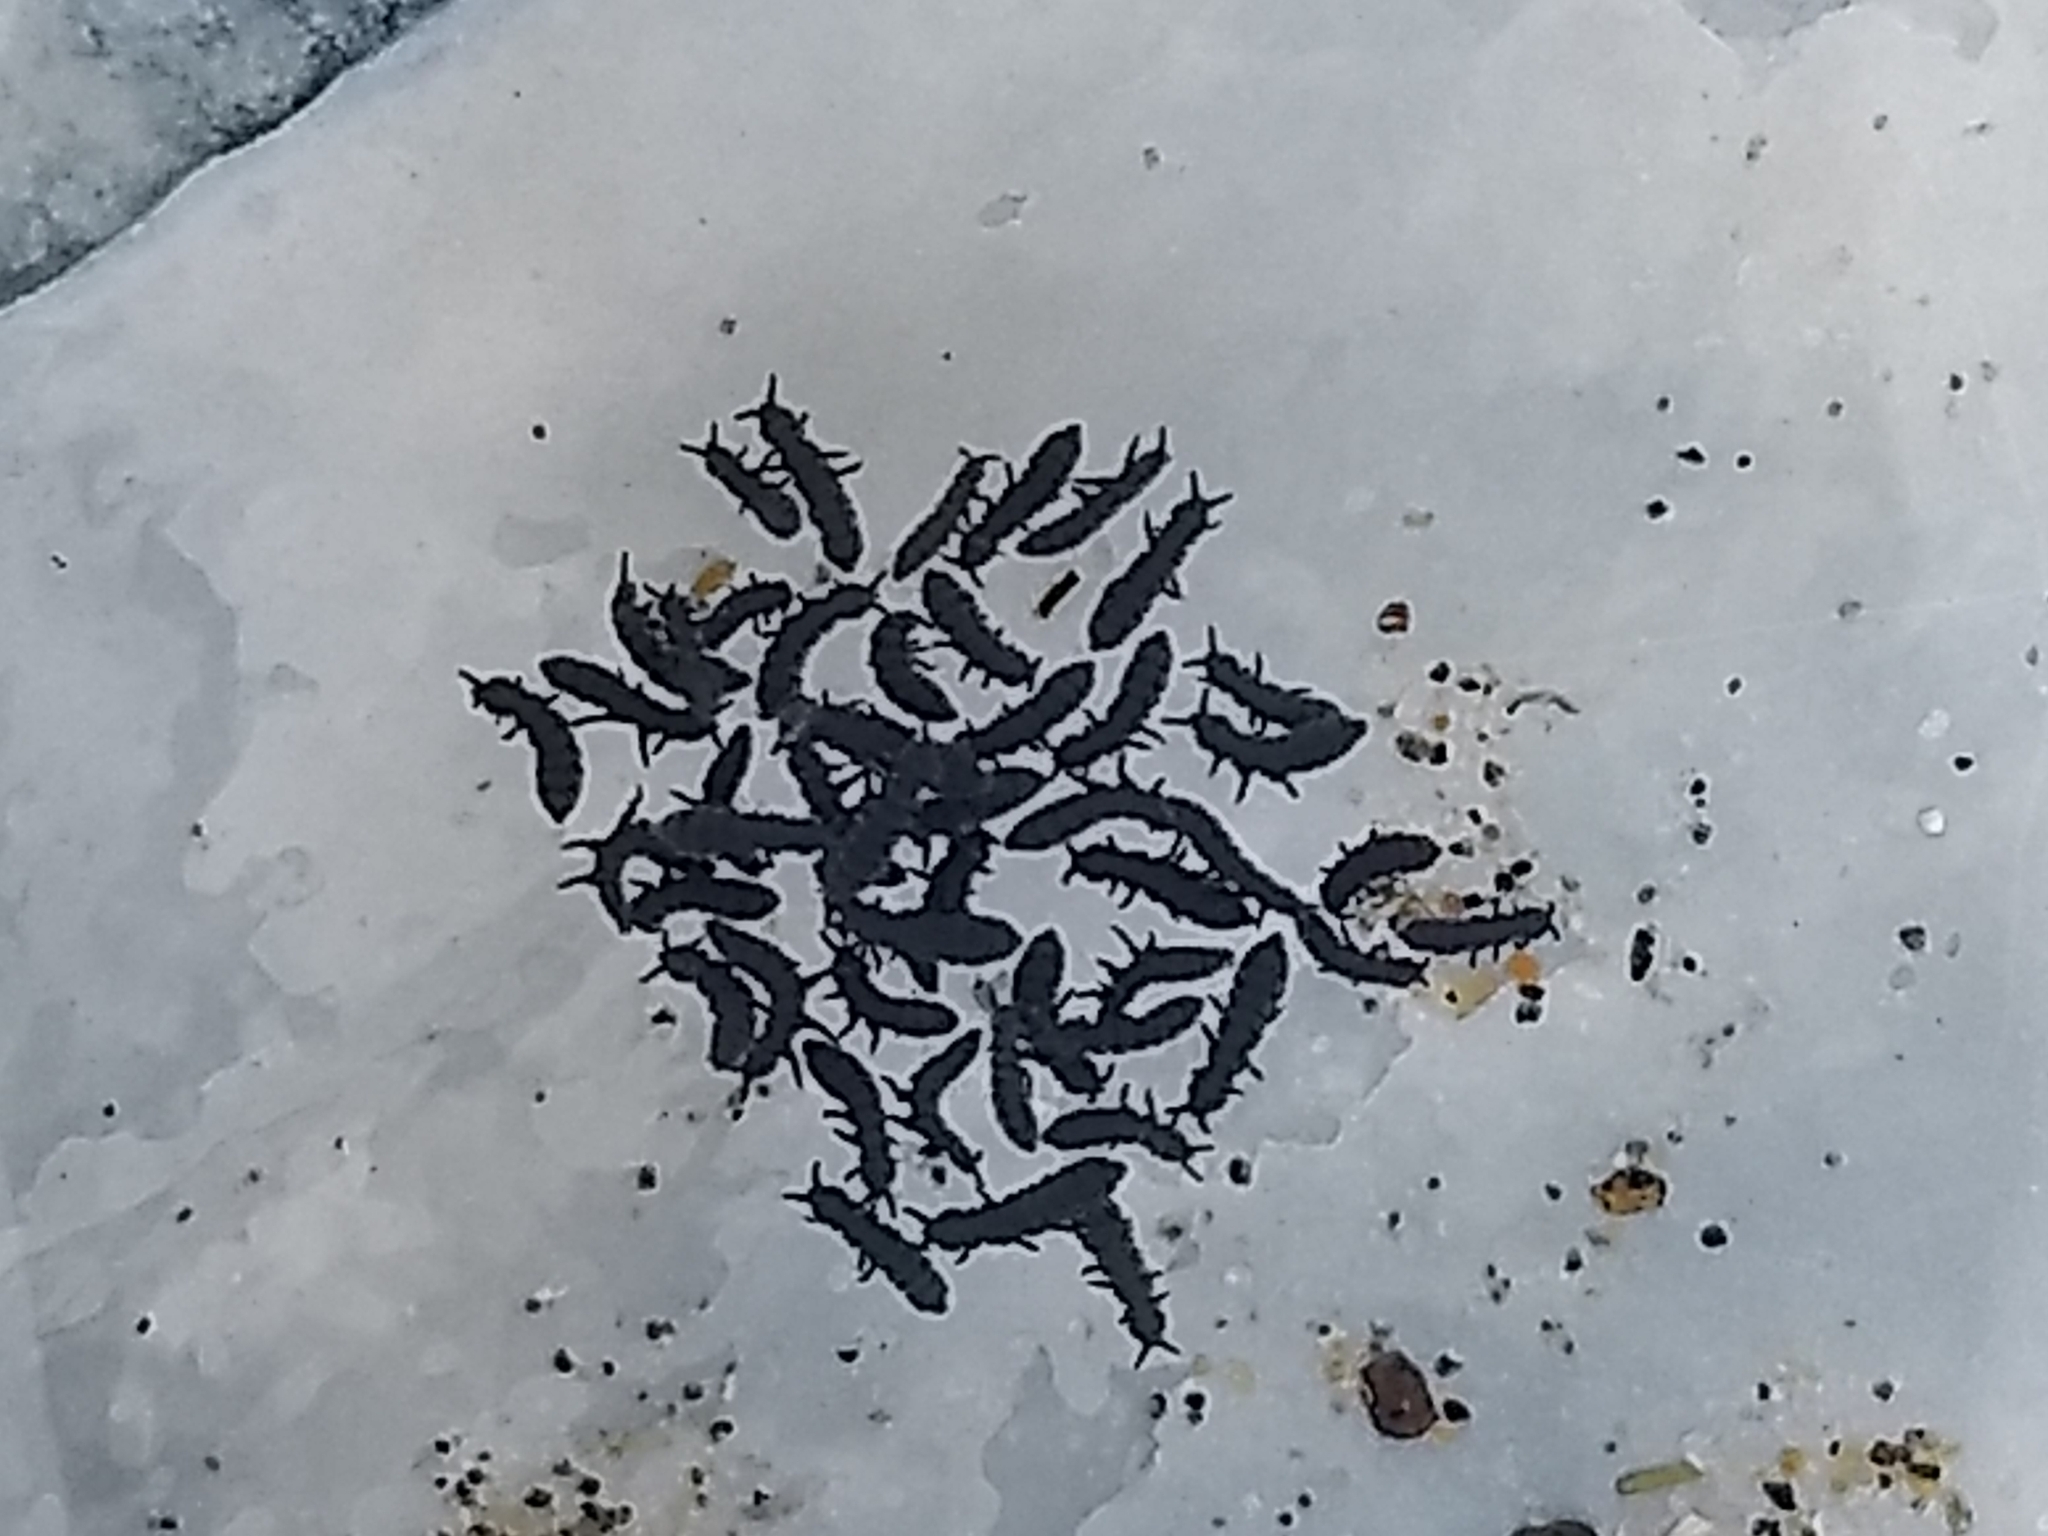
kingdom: Animalia
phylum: Arthropoda
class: Collembola
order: Poduromorpha
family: Neanuridae
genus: Anurida
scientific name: Anurida maritima
